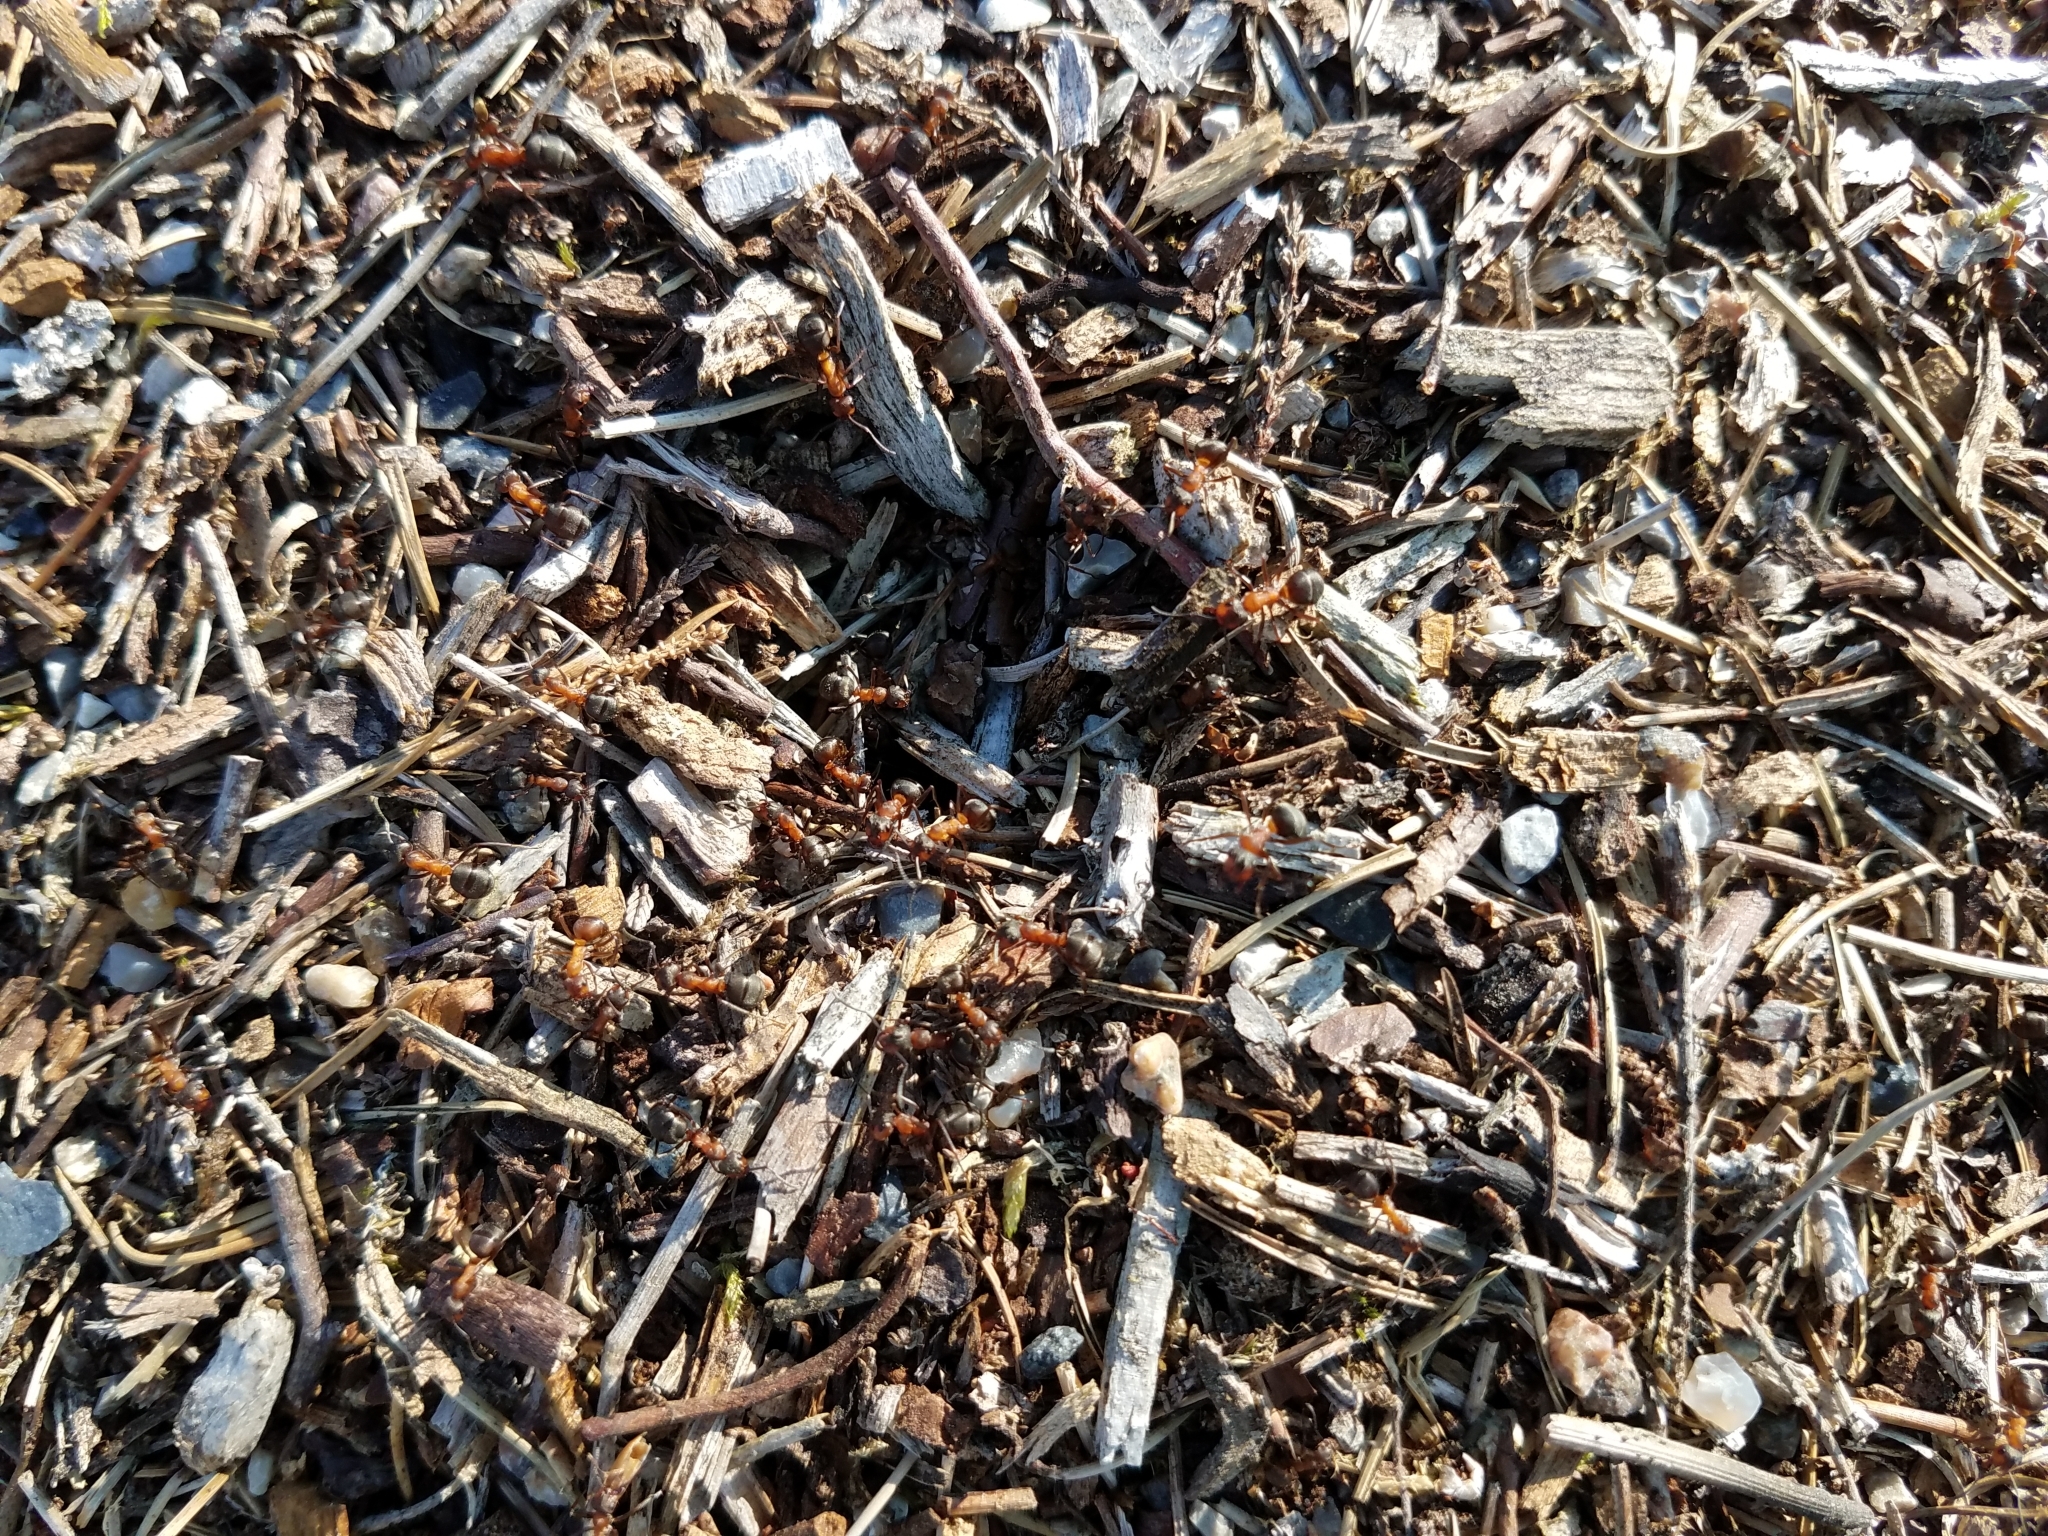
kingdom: Animalia
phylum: Arthropoda
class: Insecta
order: Hymenoptera
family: Formicidae
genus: Formica
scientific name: Formica rufa
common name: Red wood ant
